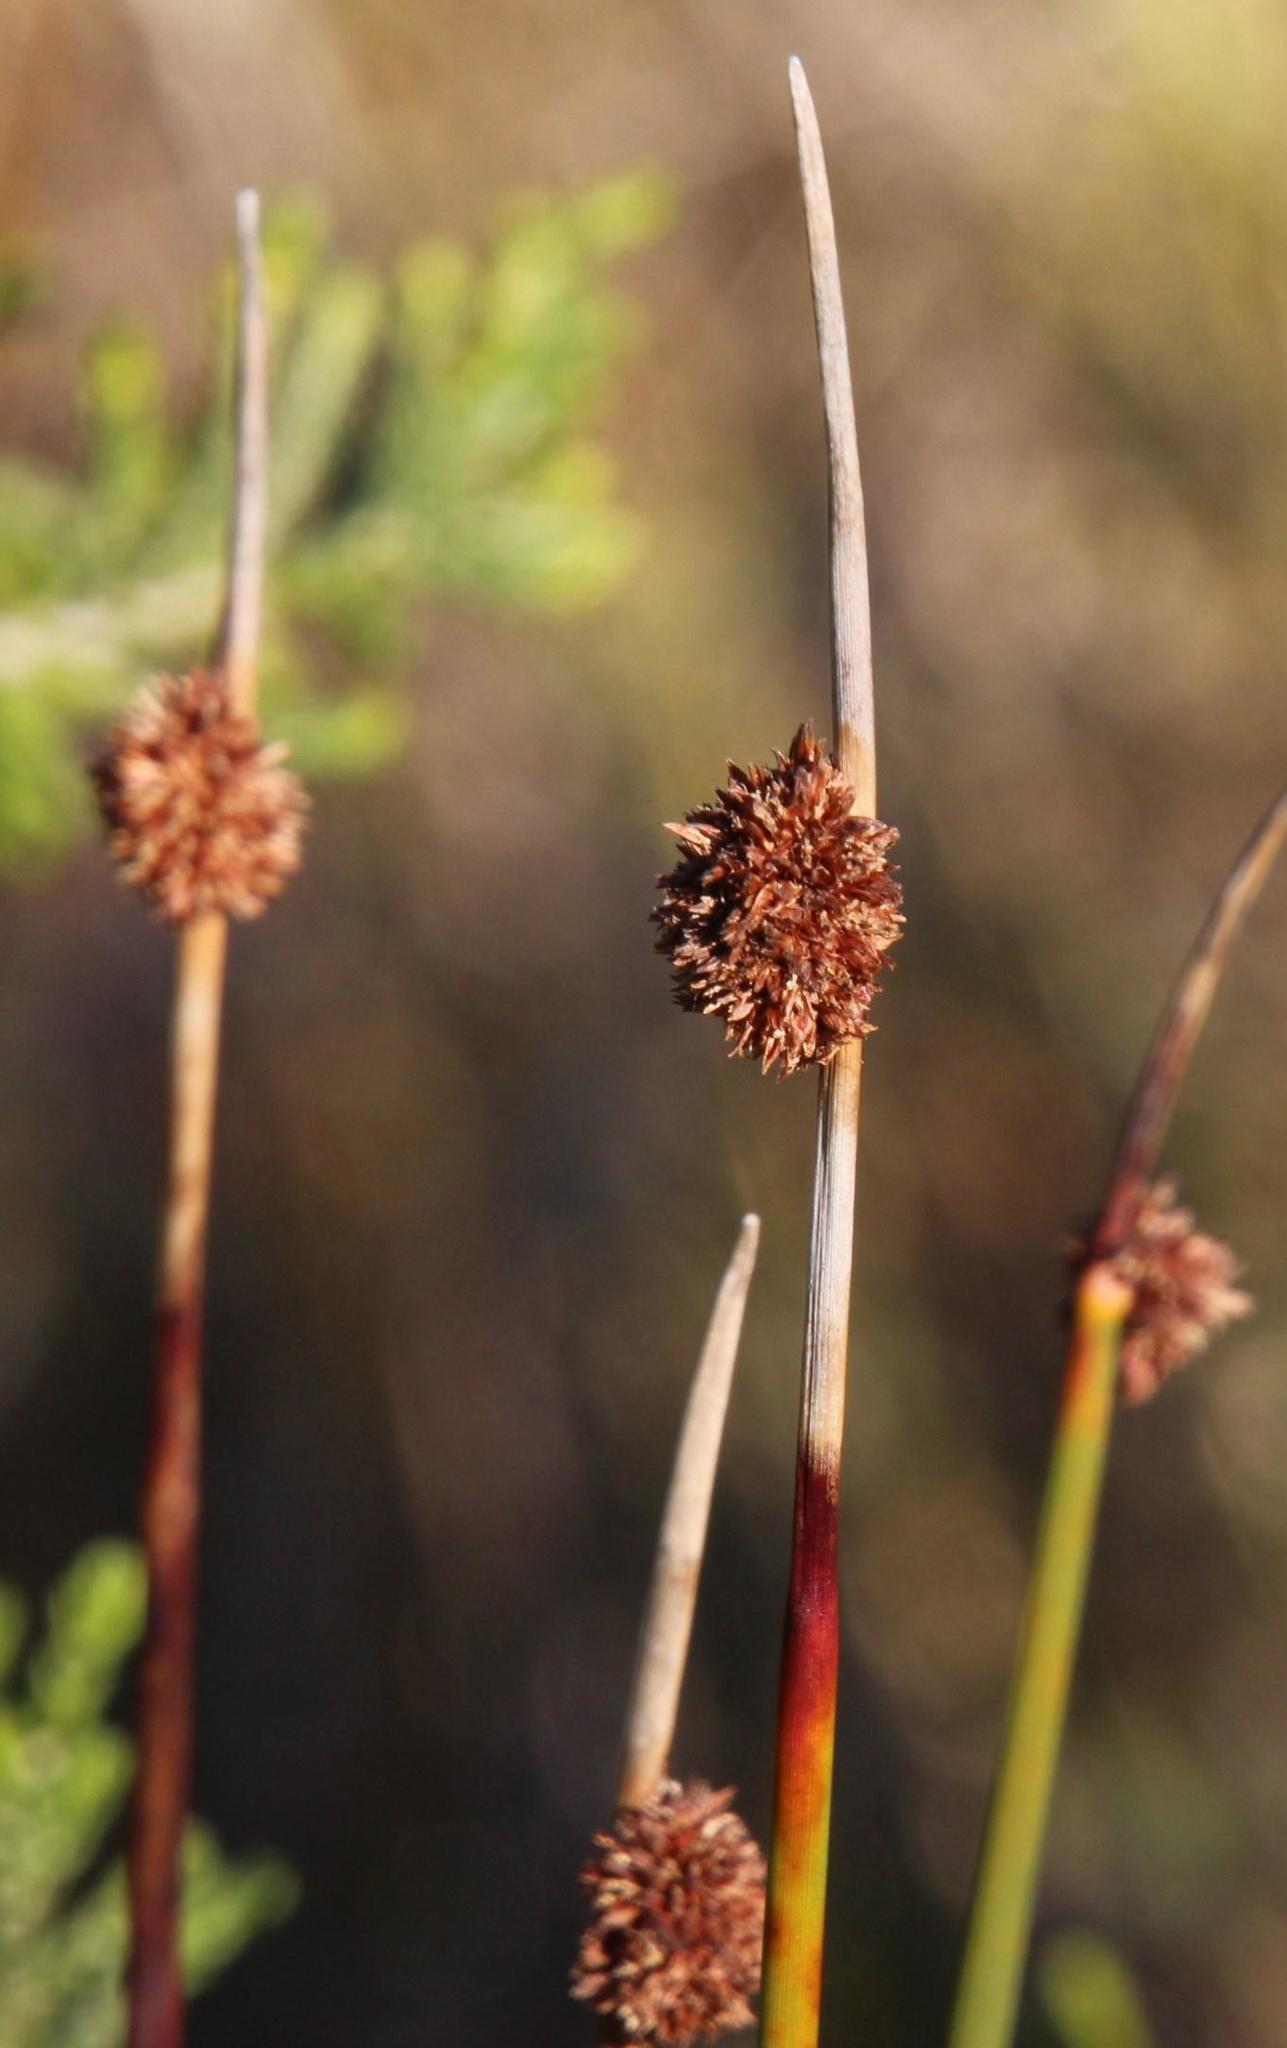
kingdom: Plantae
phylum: Tracheophyta
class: Liliopsida
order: Poales
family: Cyperaceae
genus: Ficinia
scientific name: Ficinia nodosa
